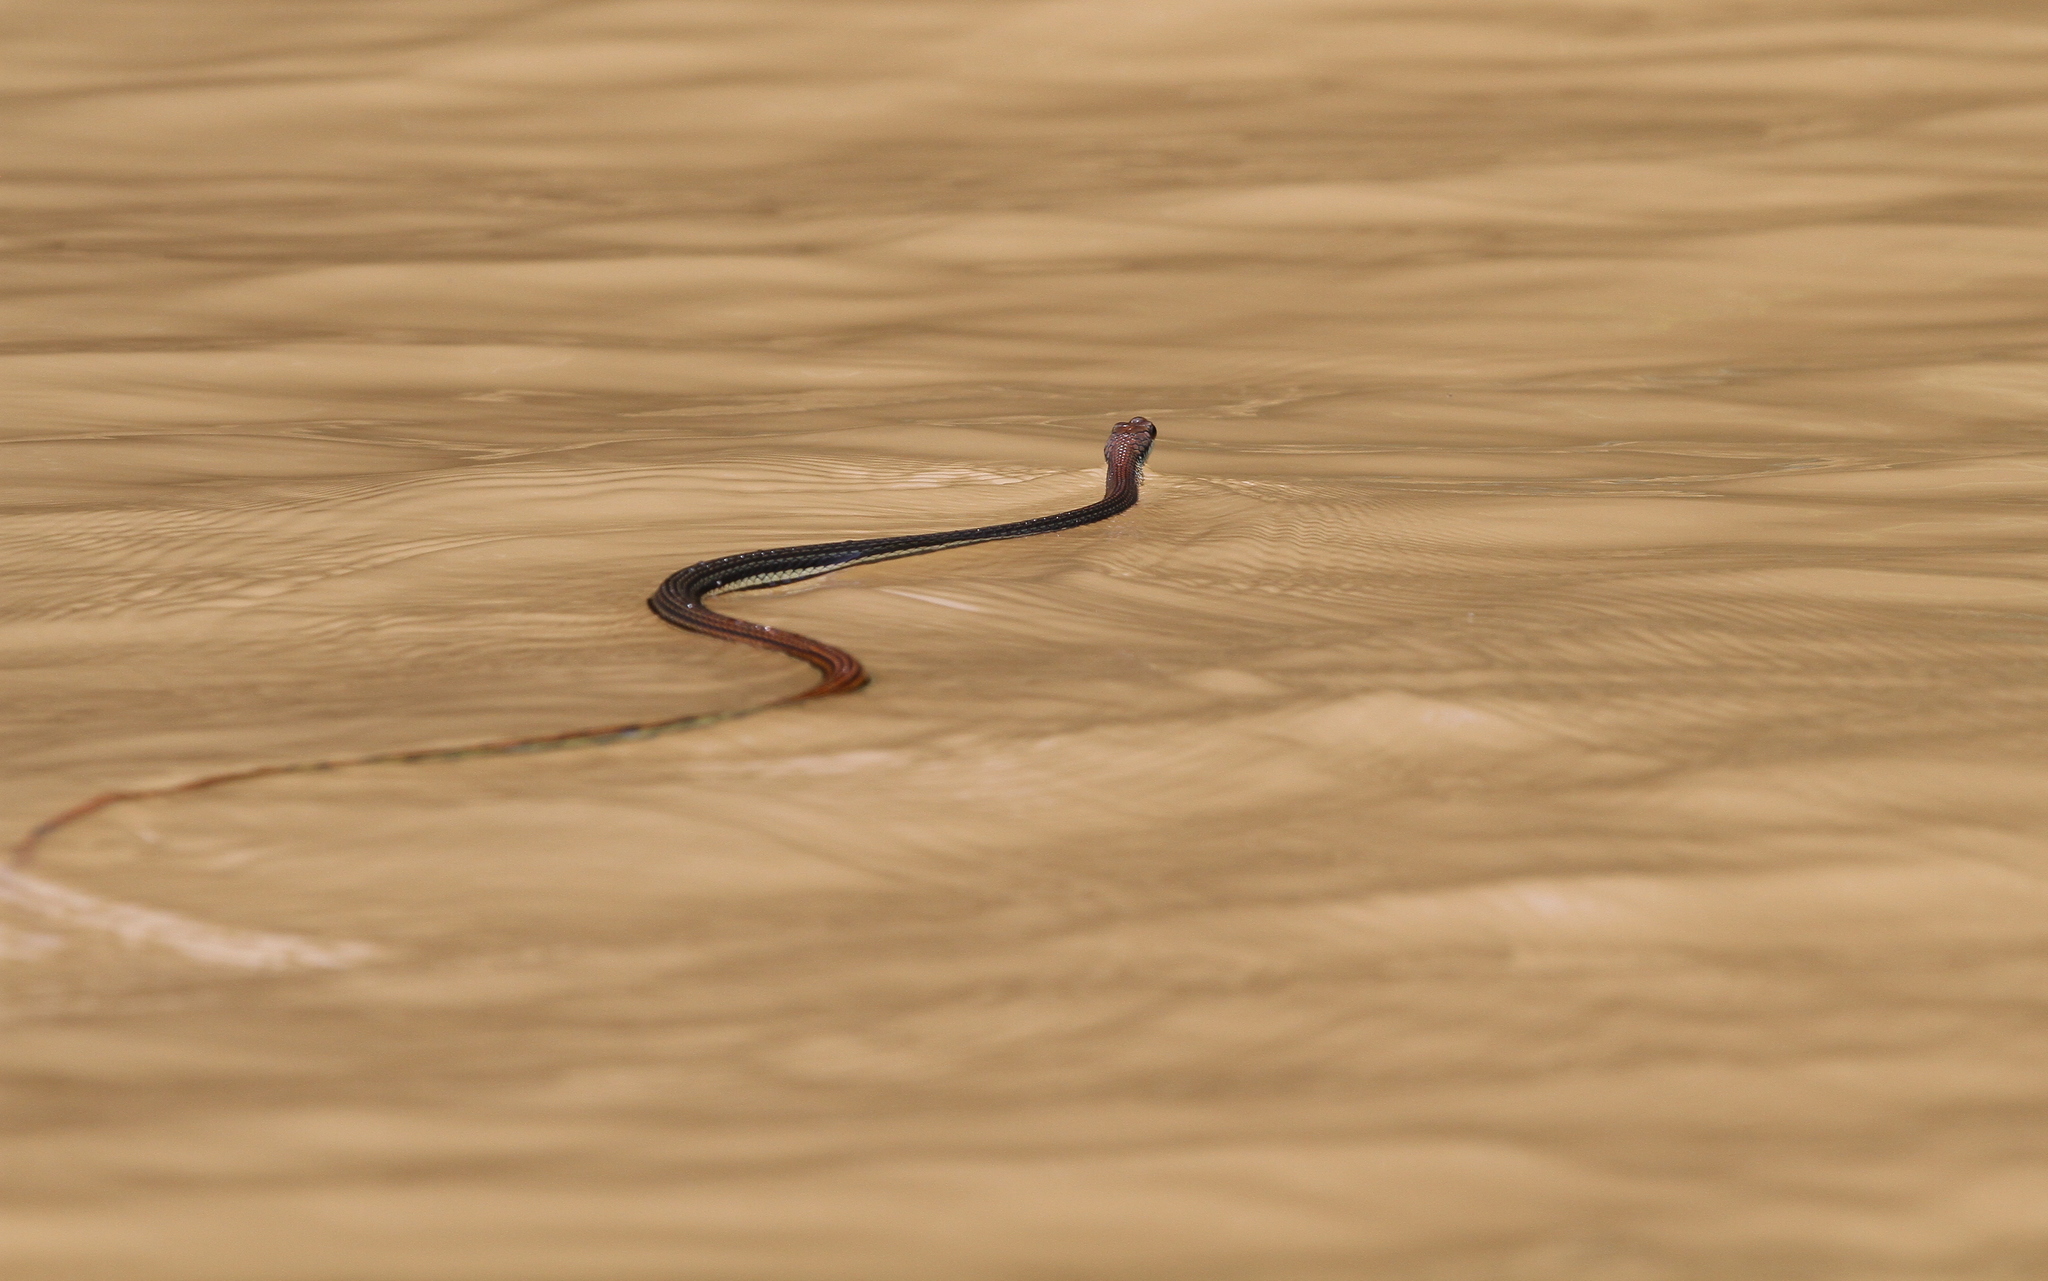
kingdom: Animalia
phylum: Chordata
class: Squamata
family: Colubridae
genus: Dendrelaphis
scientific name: Dendrelaphis caudolineatus
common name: Striped bronzeback
